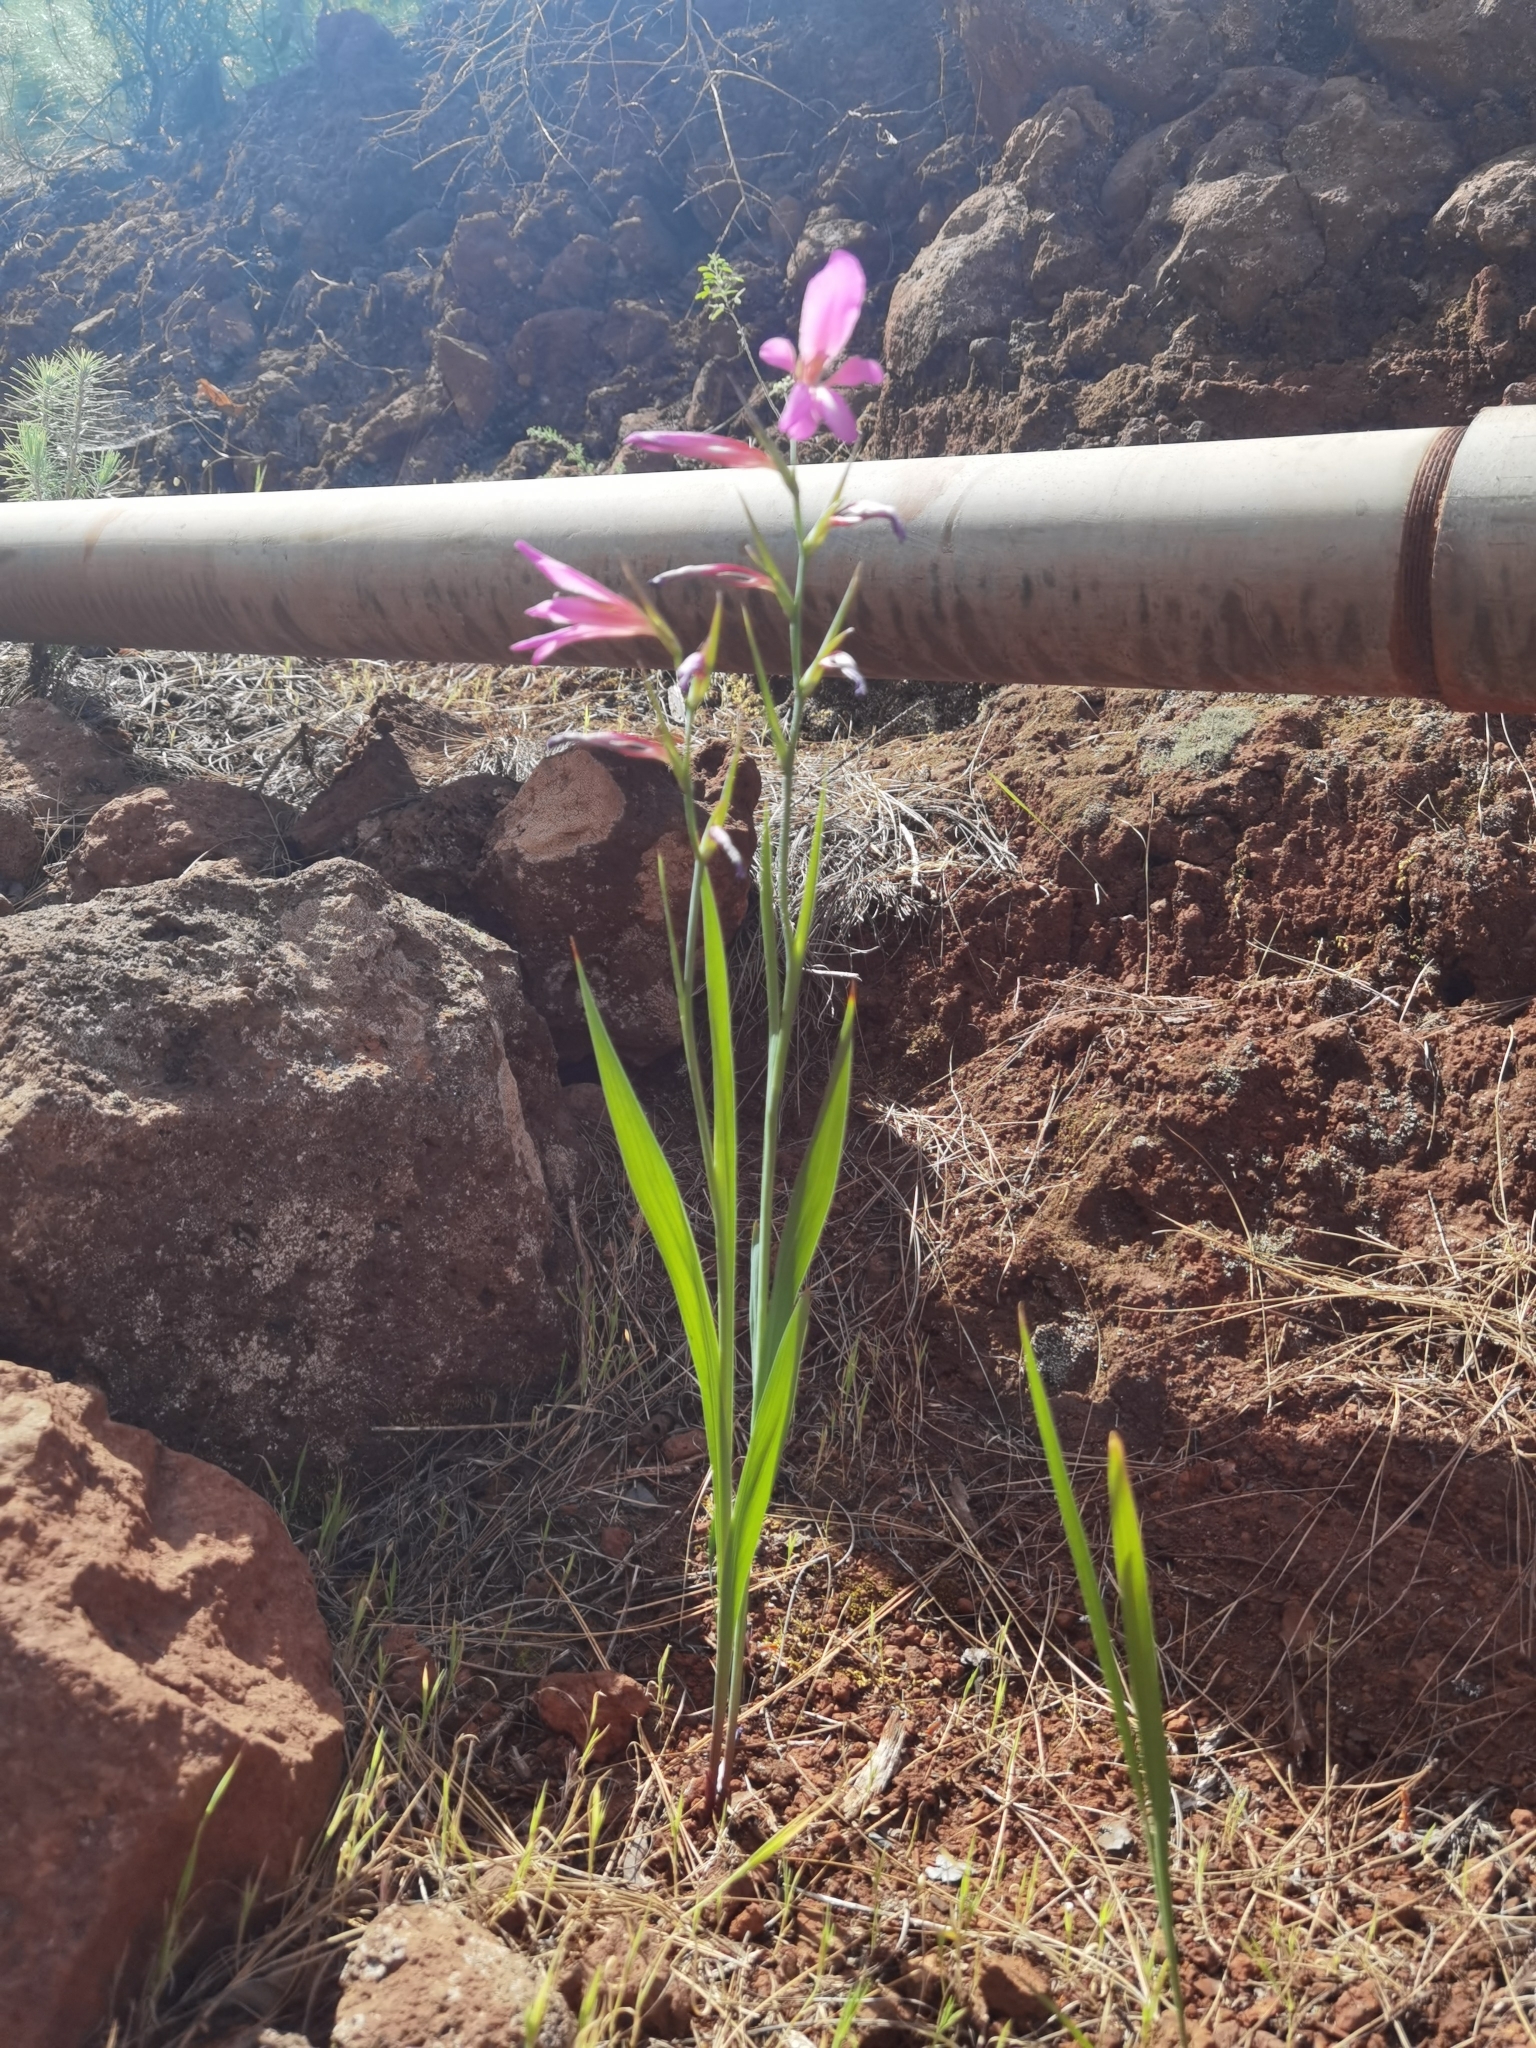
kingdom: Plantae
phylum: Tracheophyta
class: Liliopsida
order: Asparagales
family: Iridaceae
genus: Gladiolus
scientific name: Gladiolus italicus
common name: Field gladiolus
